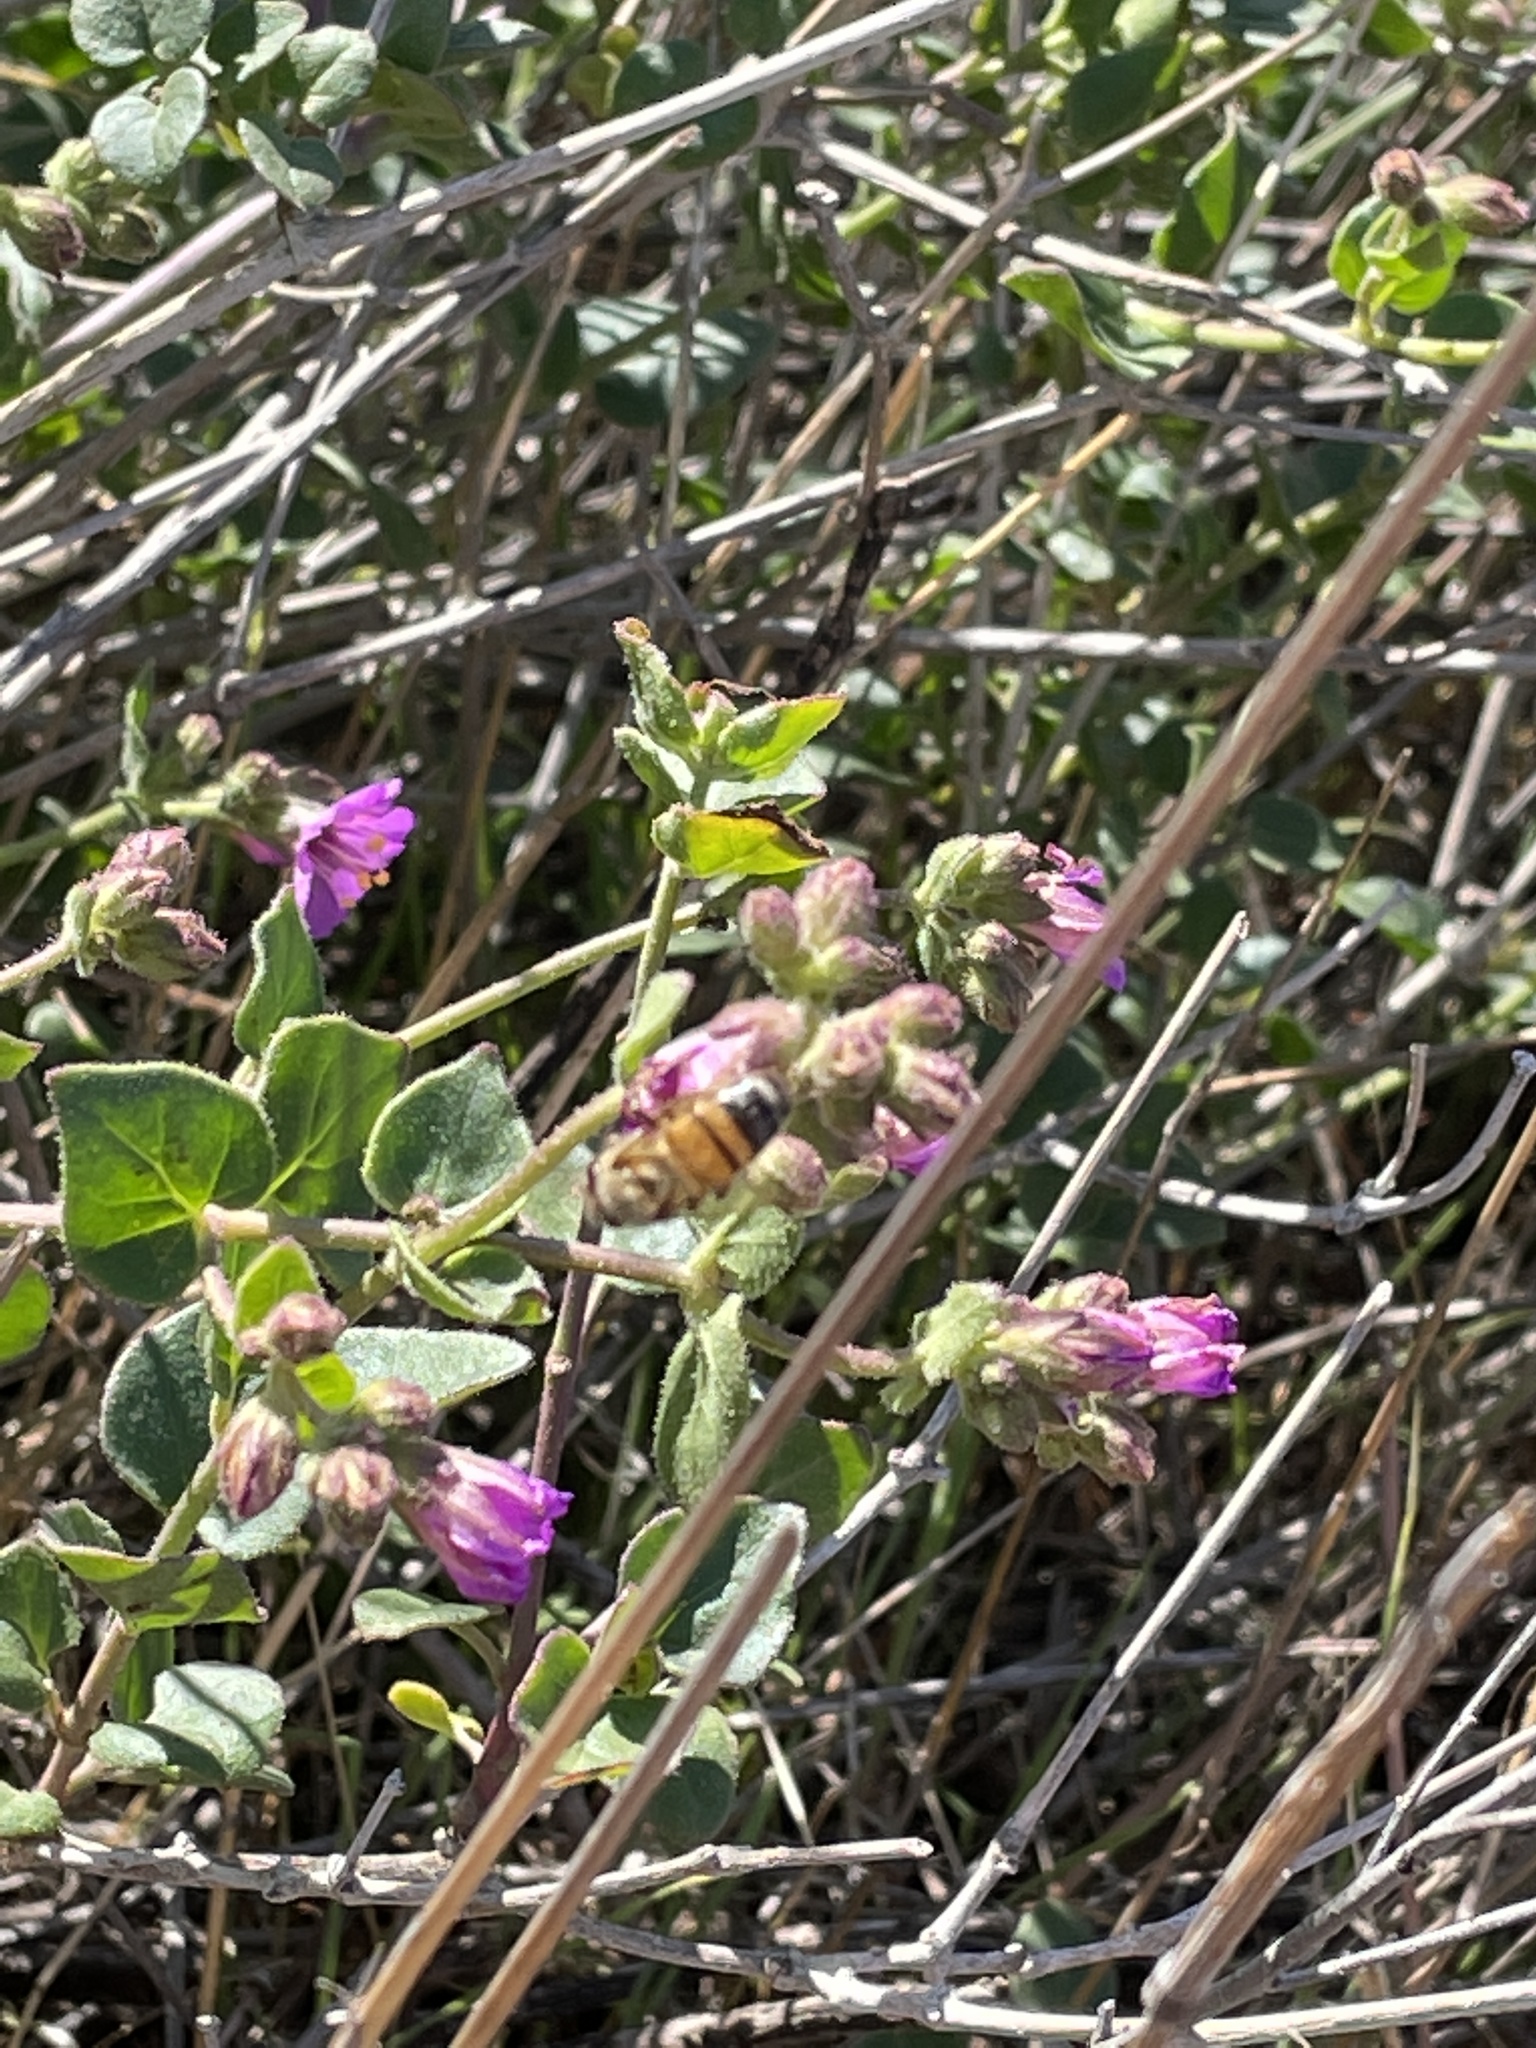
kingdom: Plantae
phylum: Tracheophyta
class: Magnoliopsida
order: Caryophyllales
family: Nyctaginaceae
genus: Mirabilis
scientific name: Mirabilis laevis
